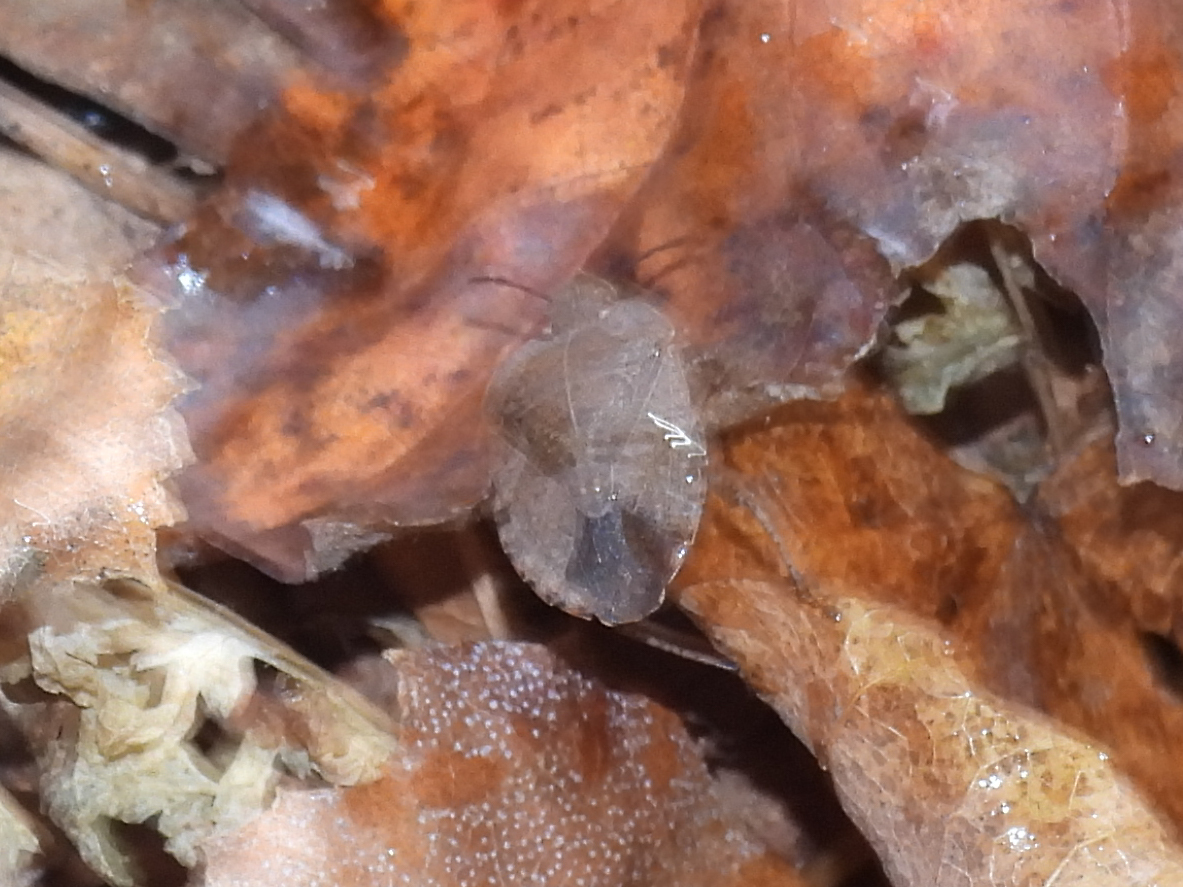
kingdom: Animalia
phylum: Arthropoda
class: Insecta
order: Hemiptera
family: Pentatomidae
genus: Menecles
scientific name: Menecles insertus
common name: Elf shoe stink bug
